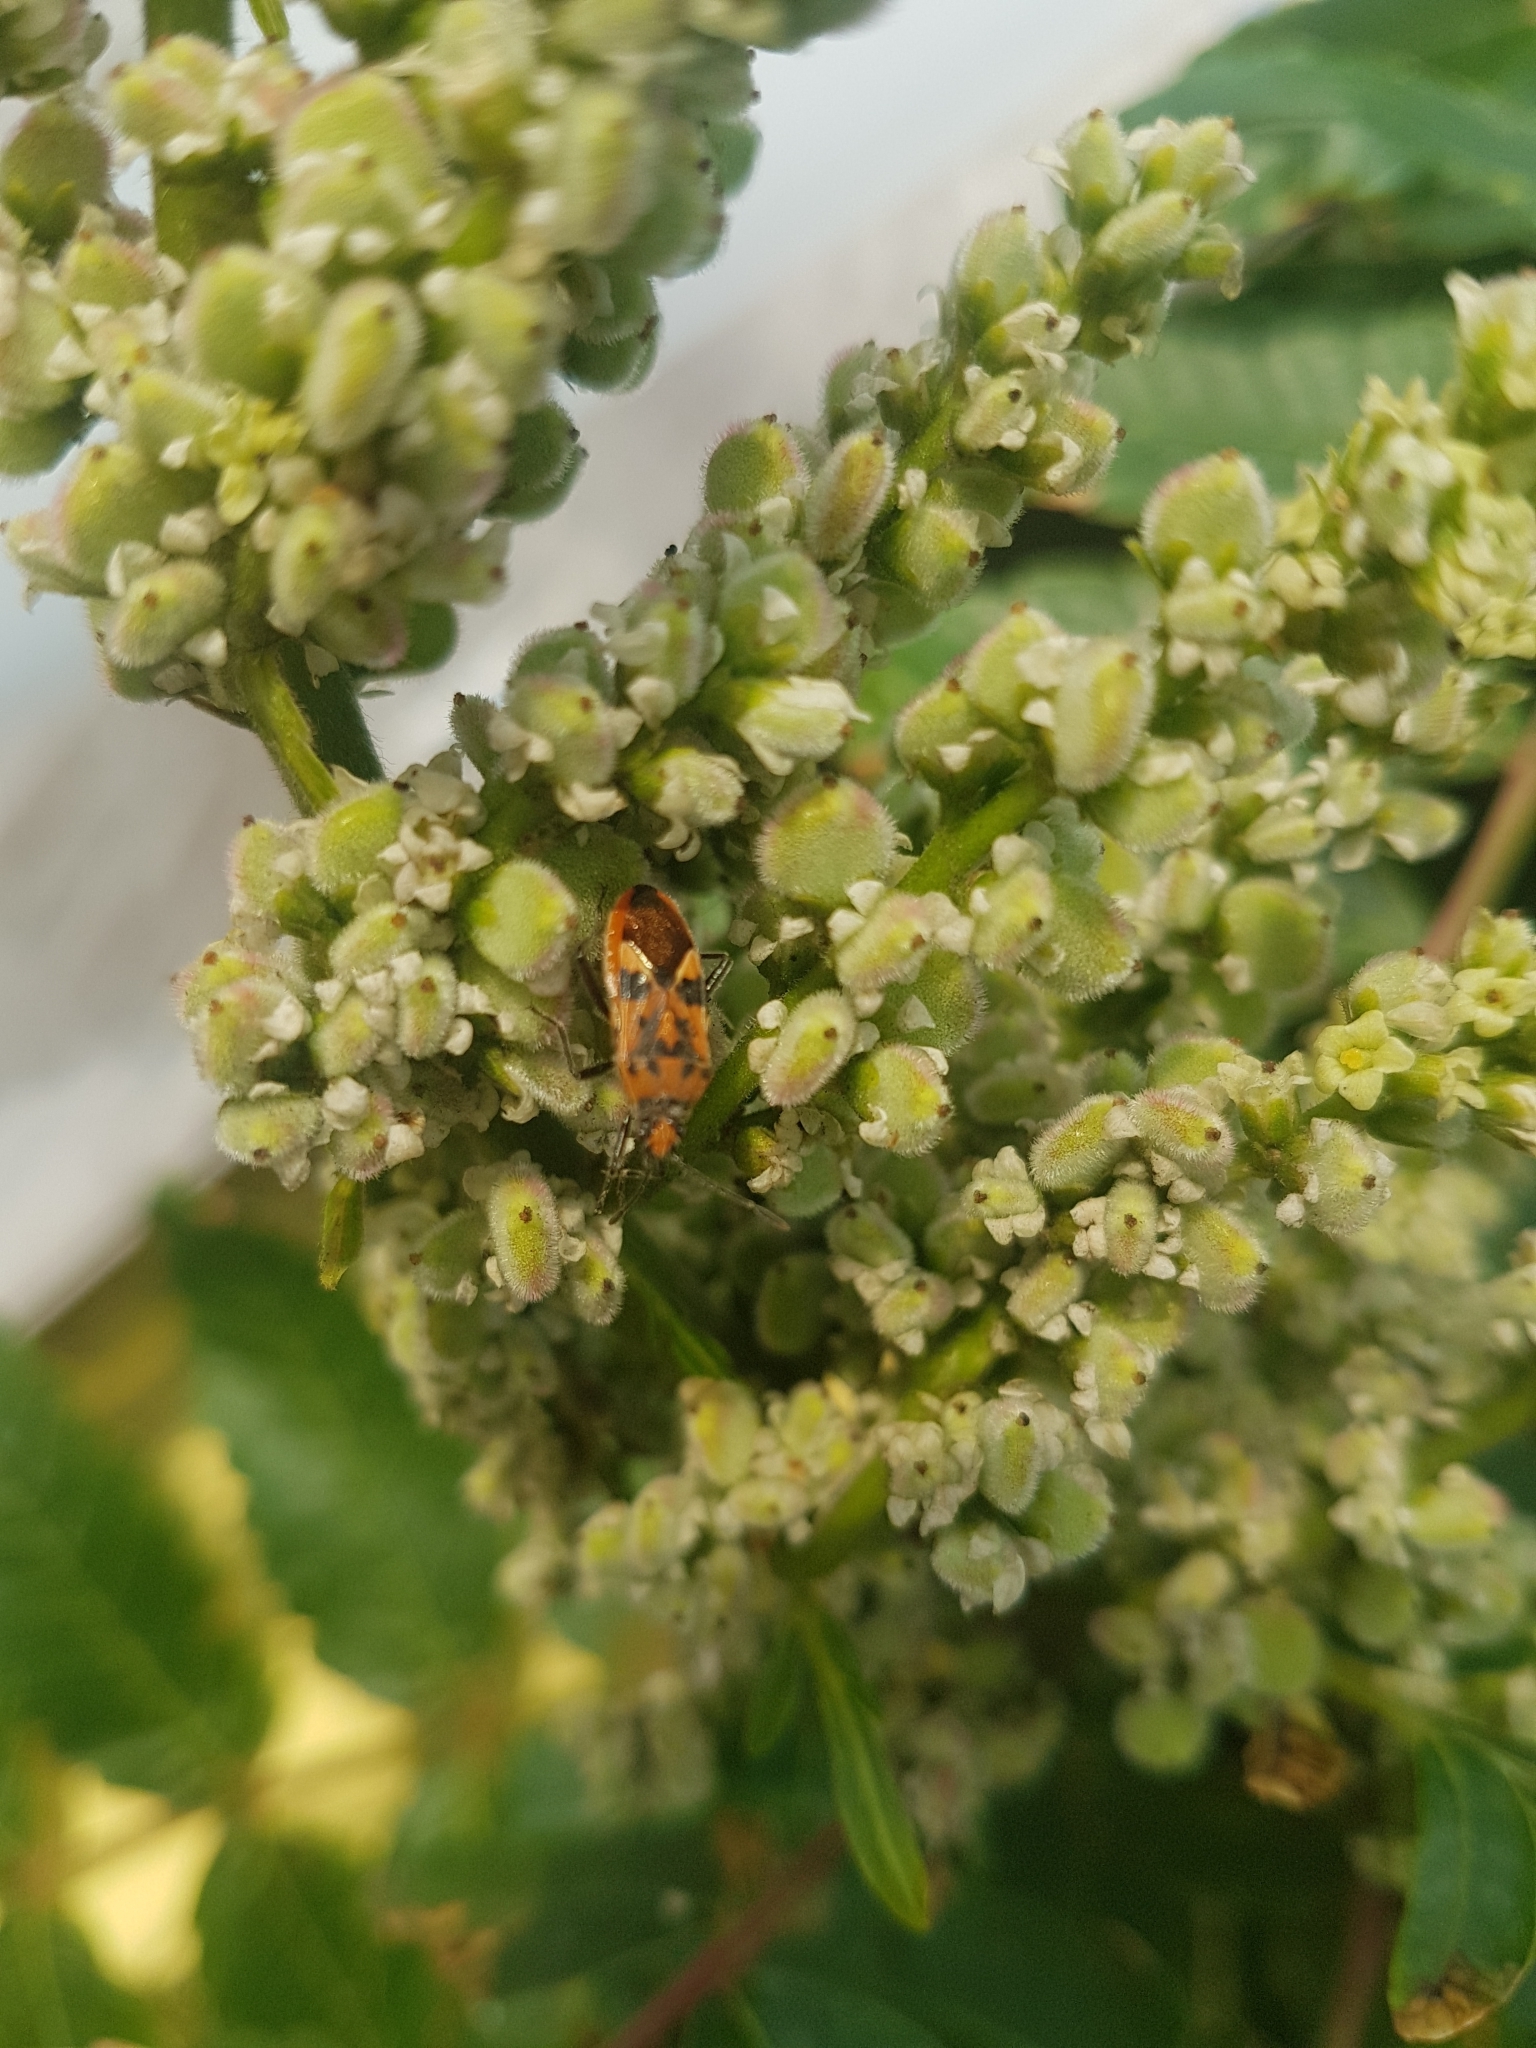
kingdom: Animalia
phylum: Arthropoda
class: Insecta
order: Hemiptera
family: Rhopalidae
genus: Corizus
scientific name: Corizus hyoscyami
